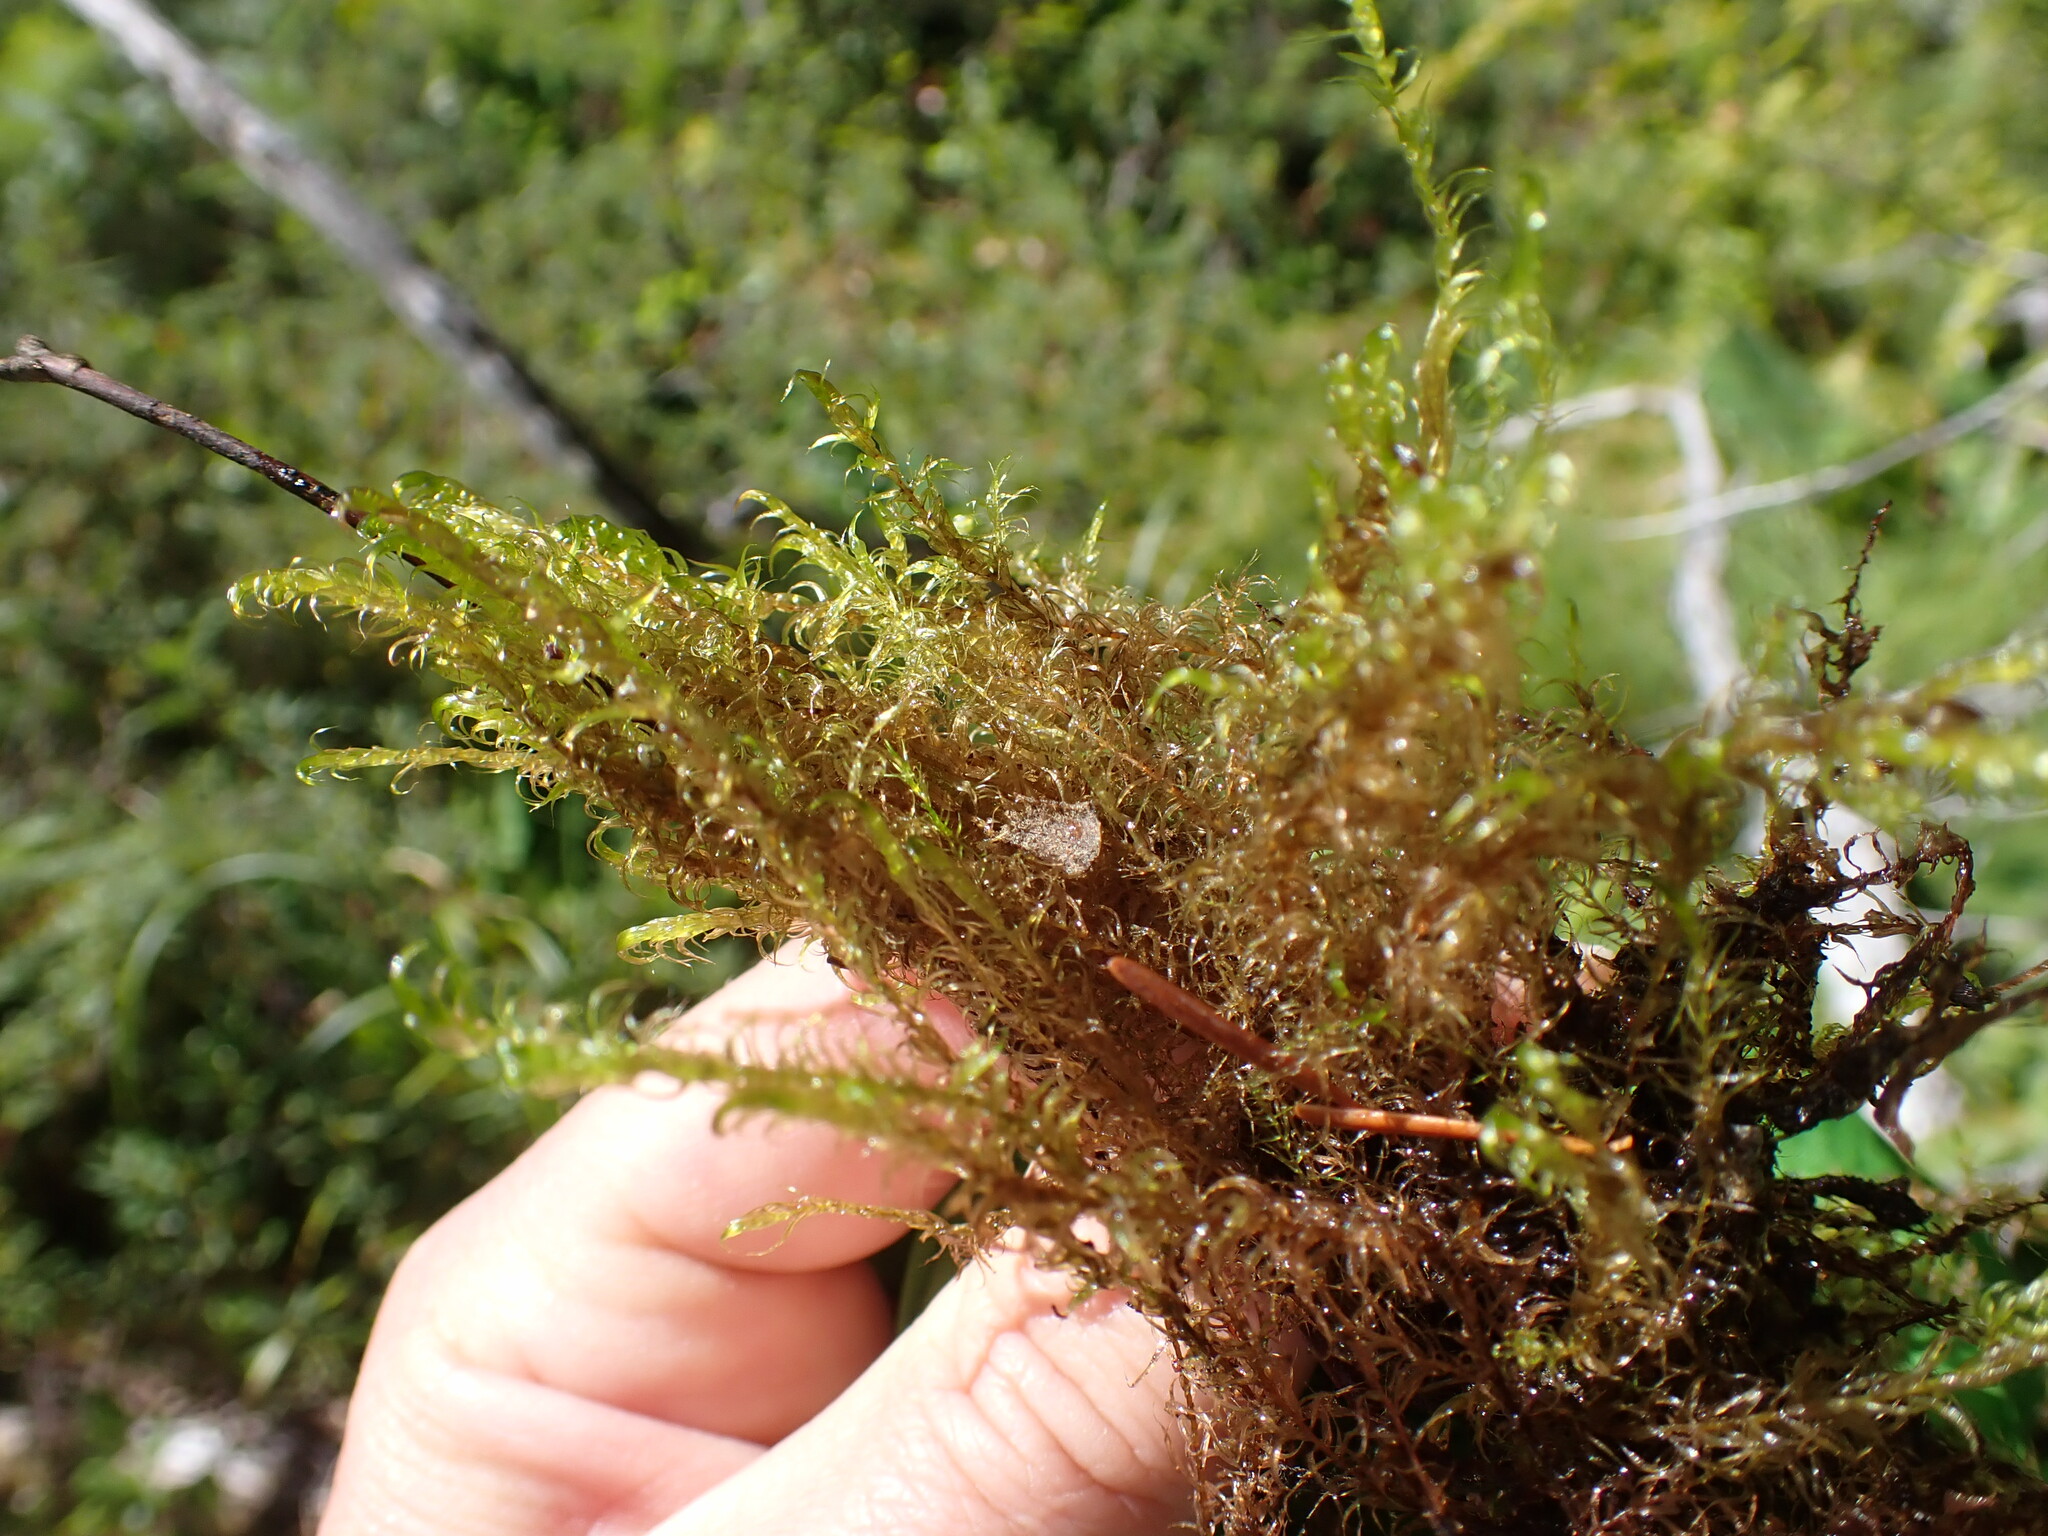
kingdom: Plantae
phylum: Bryophyta
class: Bryopsida
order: Hypnales
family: Amblystegiaceae
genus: Drepanocladus
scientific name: Drepanocladus aduncus
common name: Knieff's hook moss
